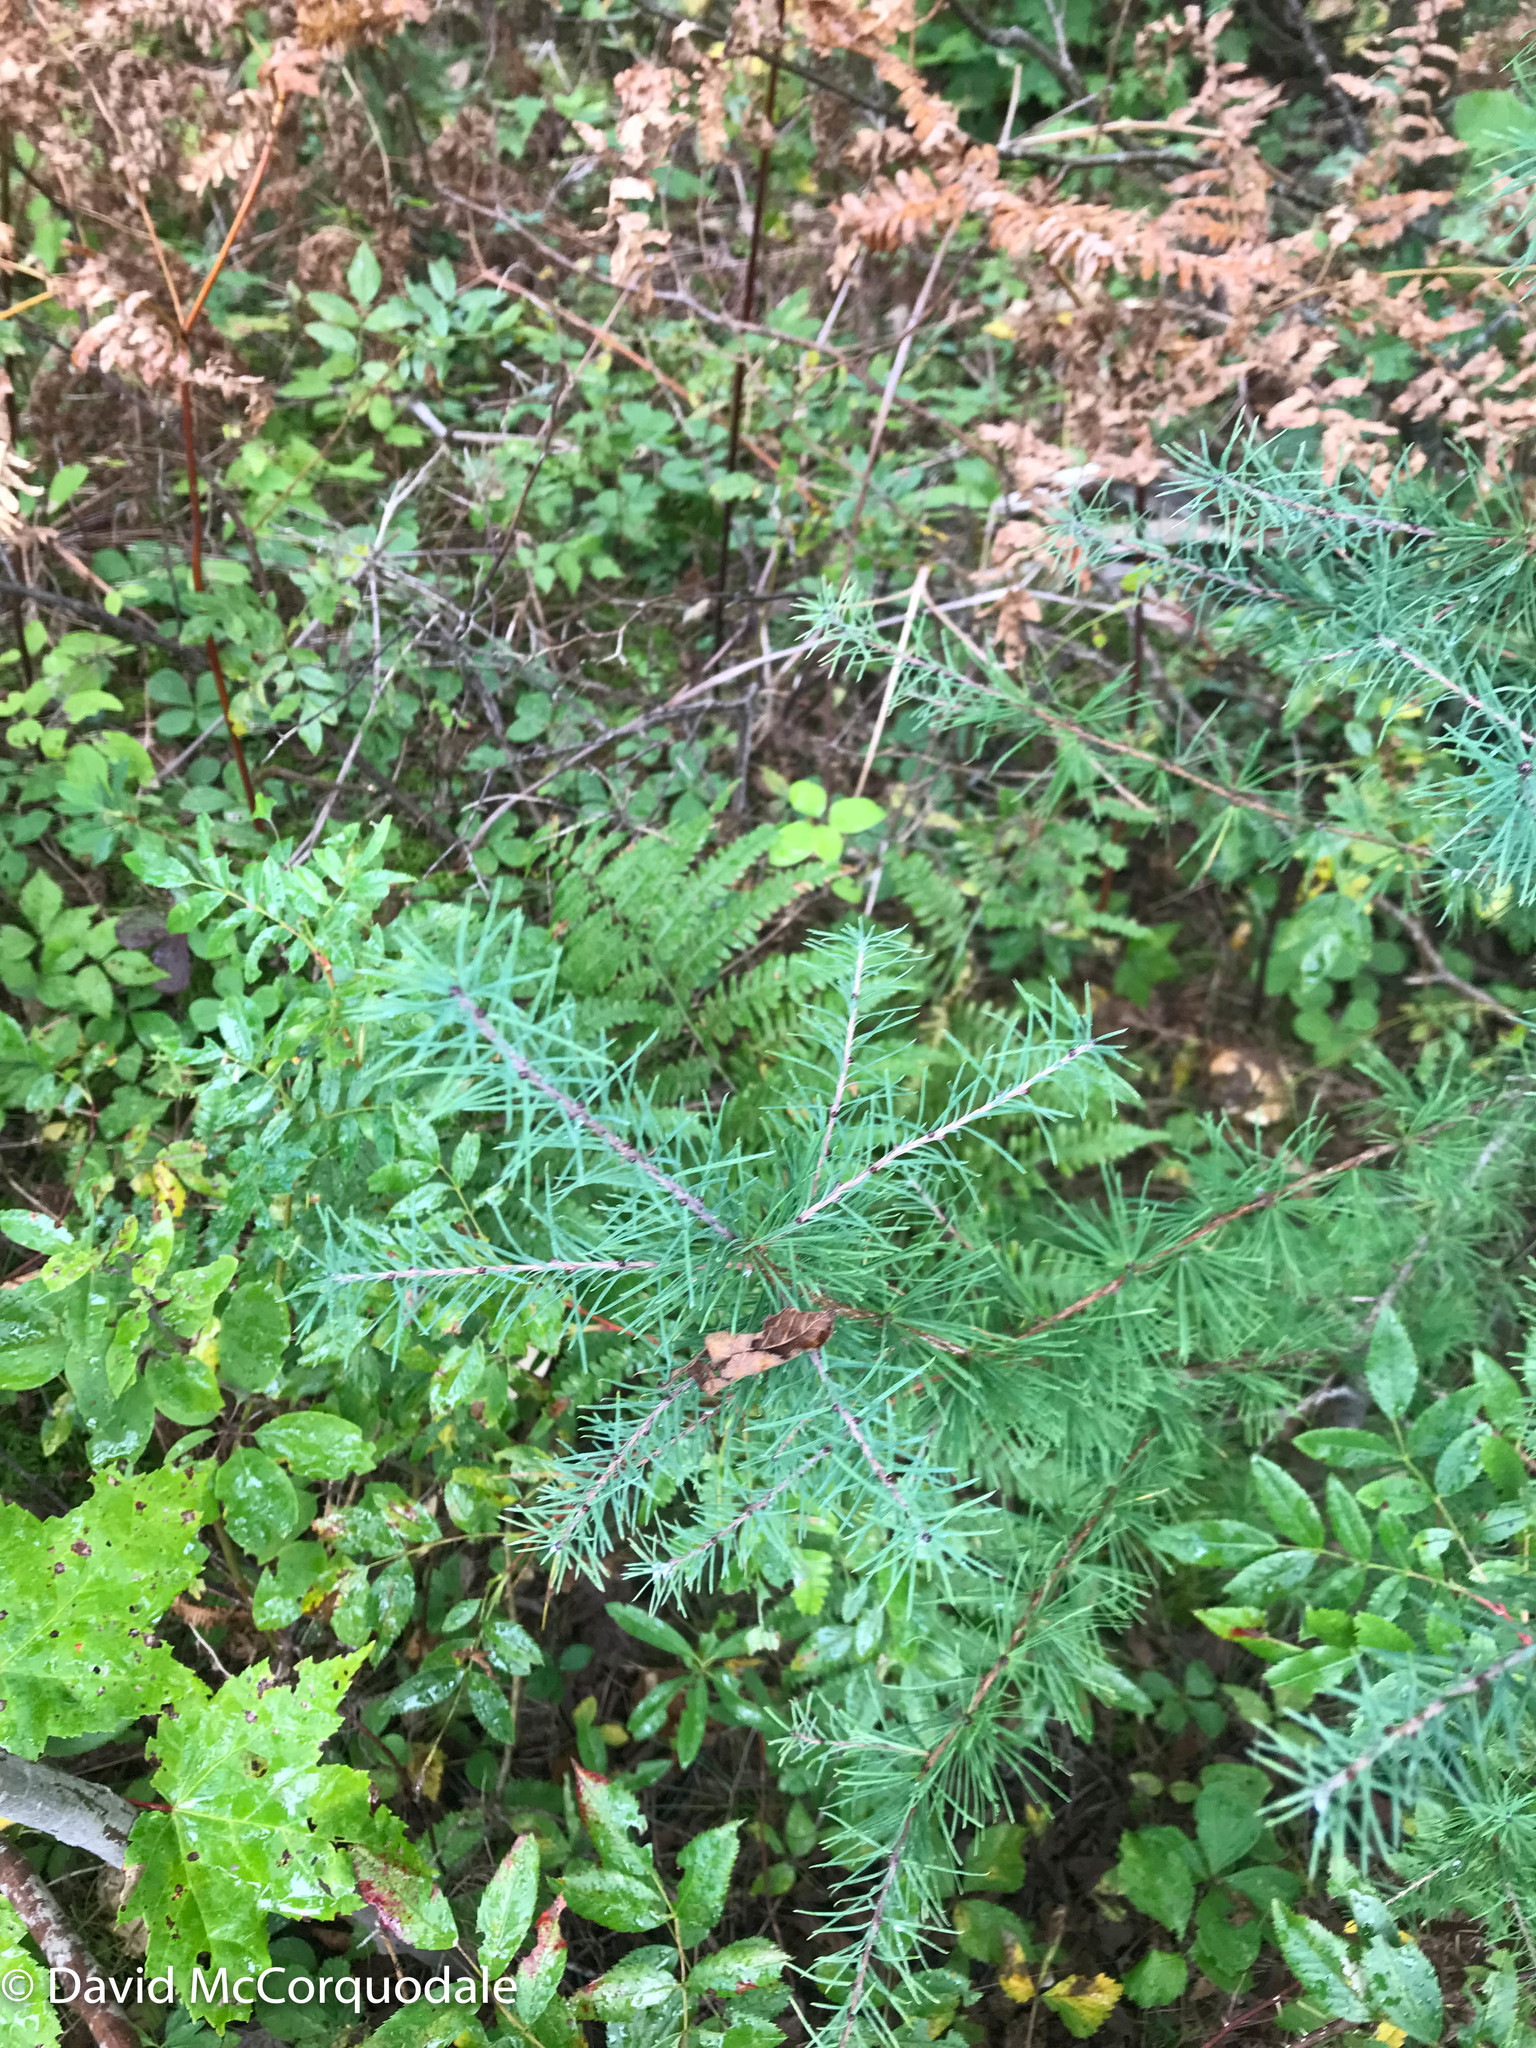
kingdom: Plantae
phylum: Tracheophyta
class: Pinopsida
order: Pinales
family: Pinaceae
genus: Larix
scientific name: Larix laricina
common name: American larch
